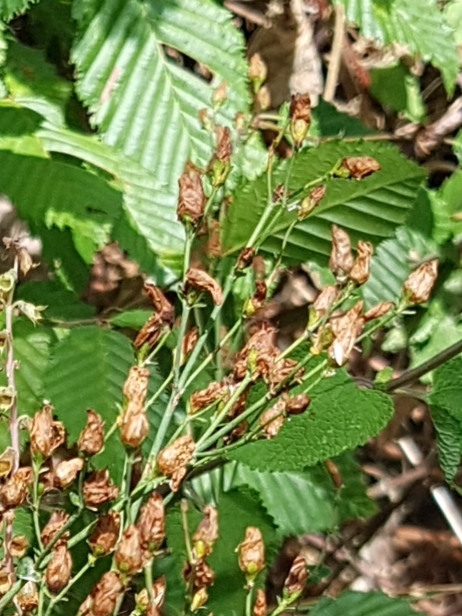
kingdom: Plantae
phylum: Tracheophyta
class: Magnoliopsida
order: Malpighiales
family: Hypericaceae
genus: Hypericum
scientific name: Hypericum pulchrum
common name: Slender st. john's-wort
